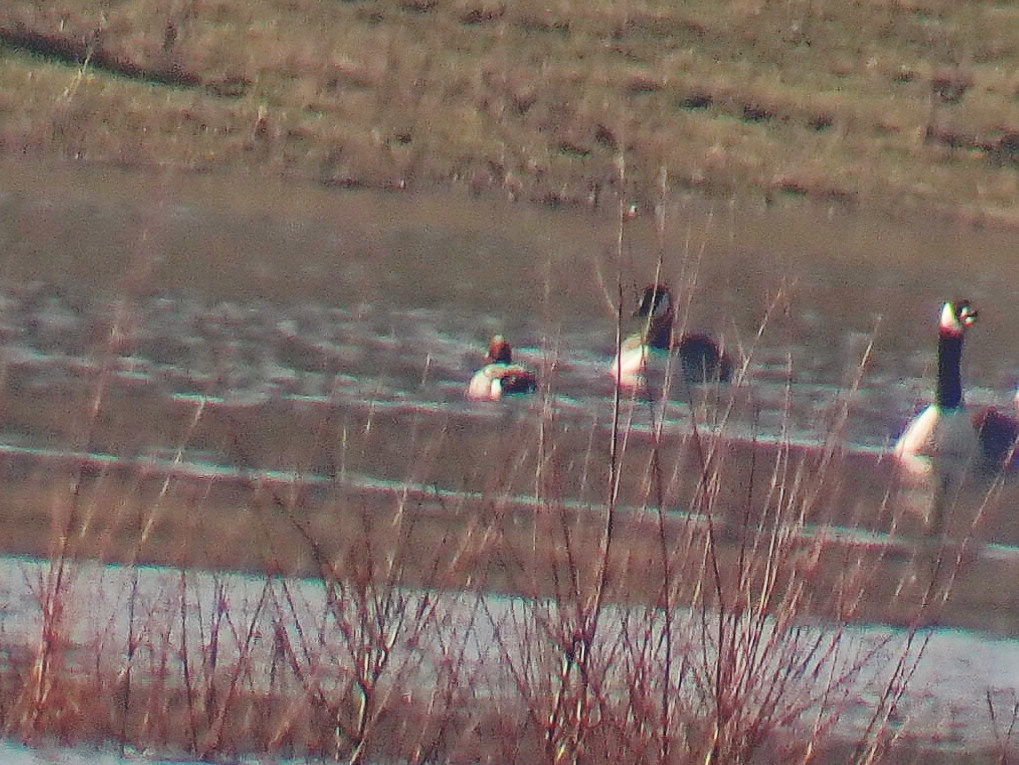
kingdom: Animalia
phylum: Chordata
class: Aves
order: Anseriformes
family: Anatidae
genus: Mareca
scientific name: Mareca penelope
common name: Eurasian wigeon
